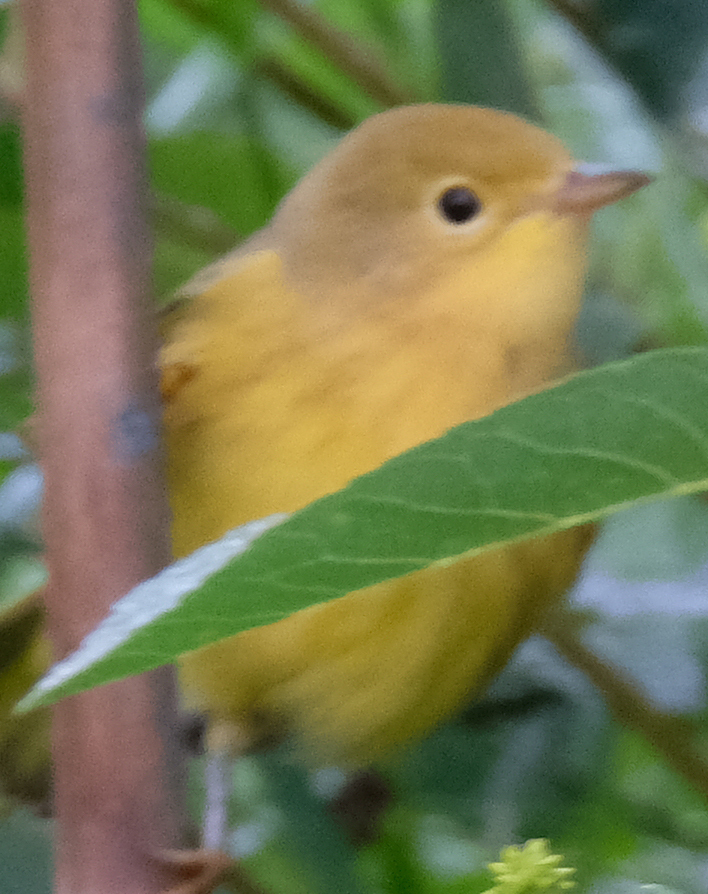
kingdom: Animalia
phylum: Chordata
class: Aves
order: Passeriformes
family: Parulidae
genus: Setophaga
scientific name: Setophaga petechia
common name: Yellow warbler
